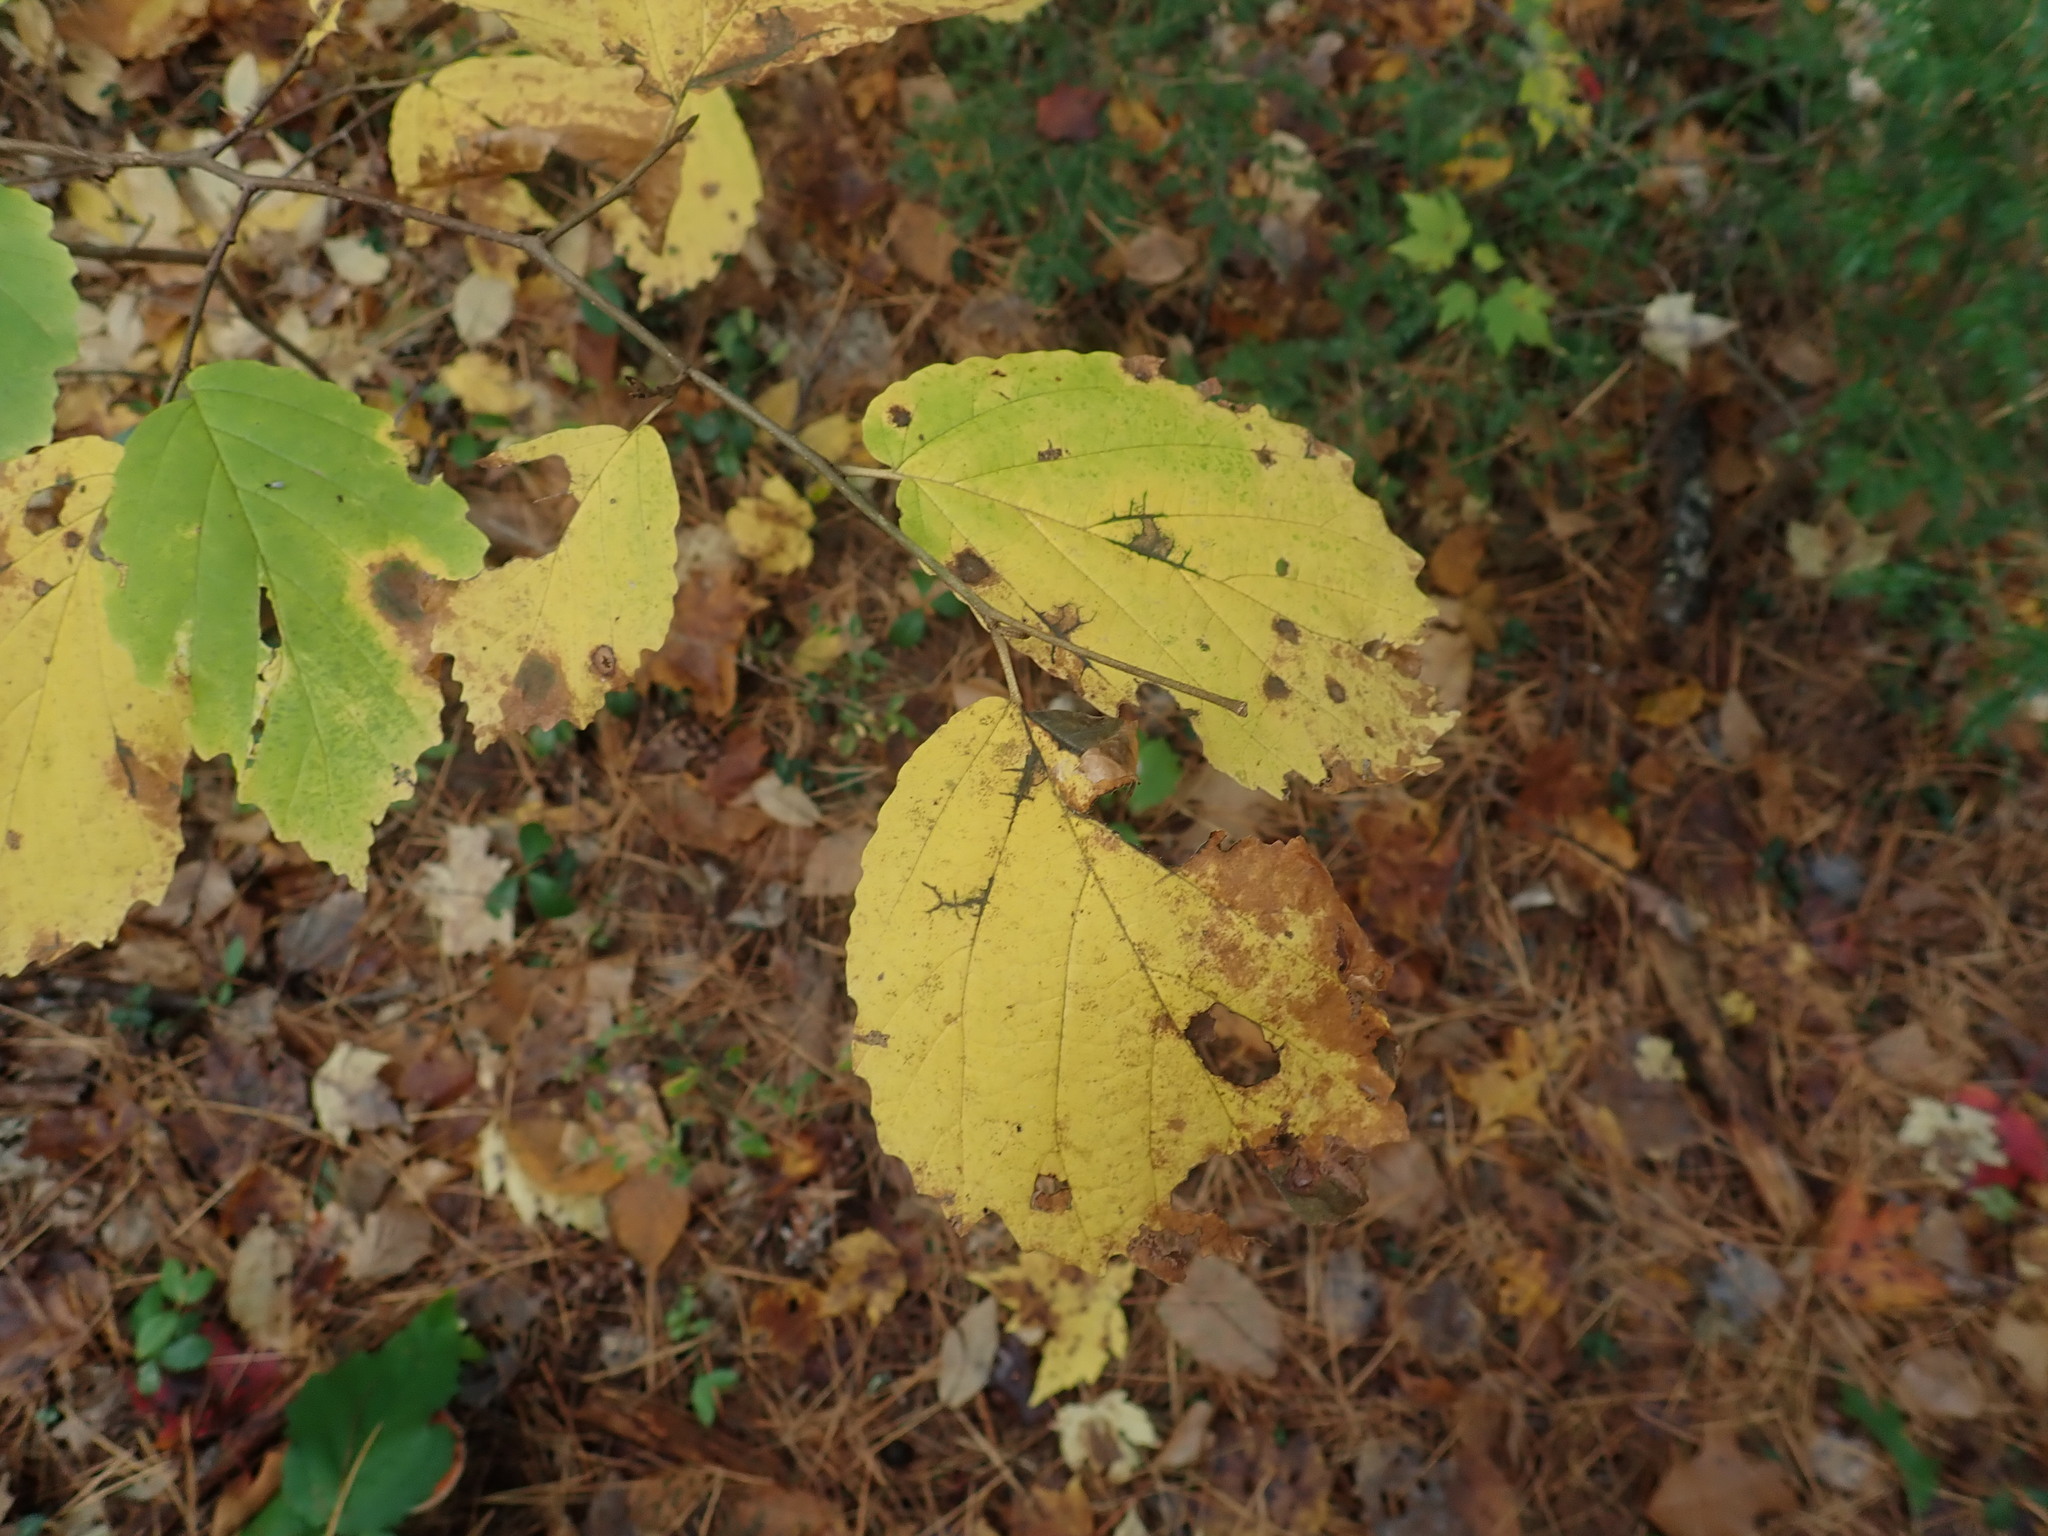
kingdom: Plantae
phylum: Tracheophyta
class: Magnoliopsida
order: Saxifragales
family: Hamamelidaceae
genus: Hamamelis
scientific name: Hamamelis virginiana
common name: Witch-hazel
